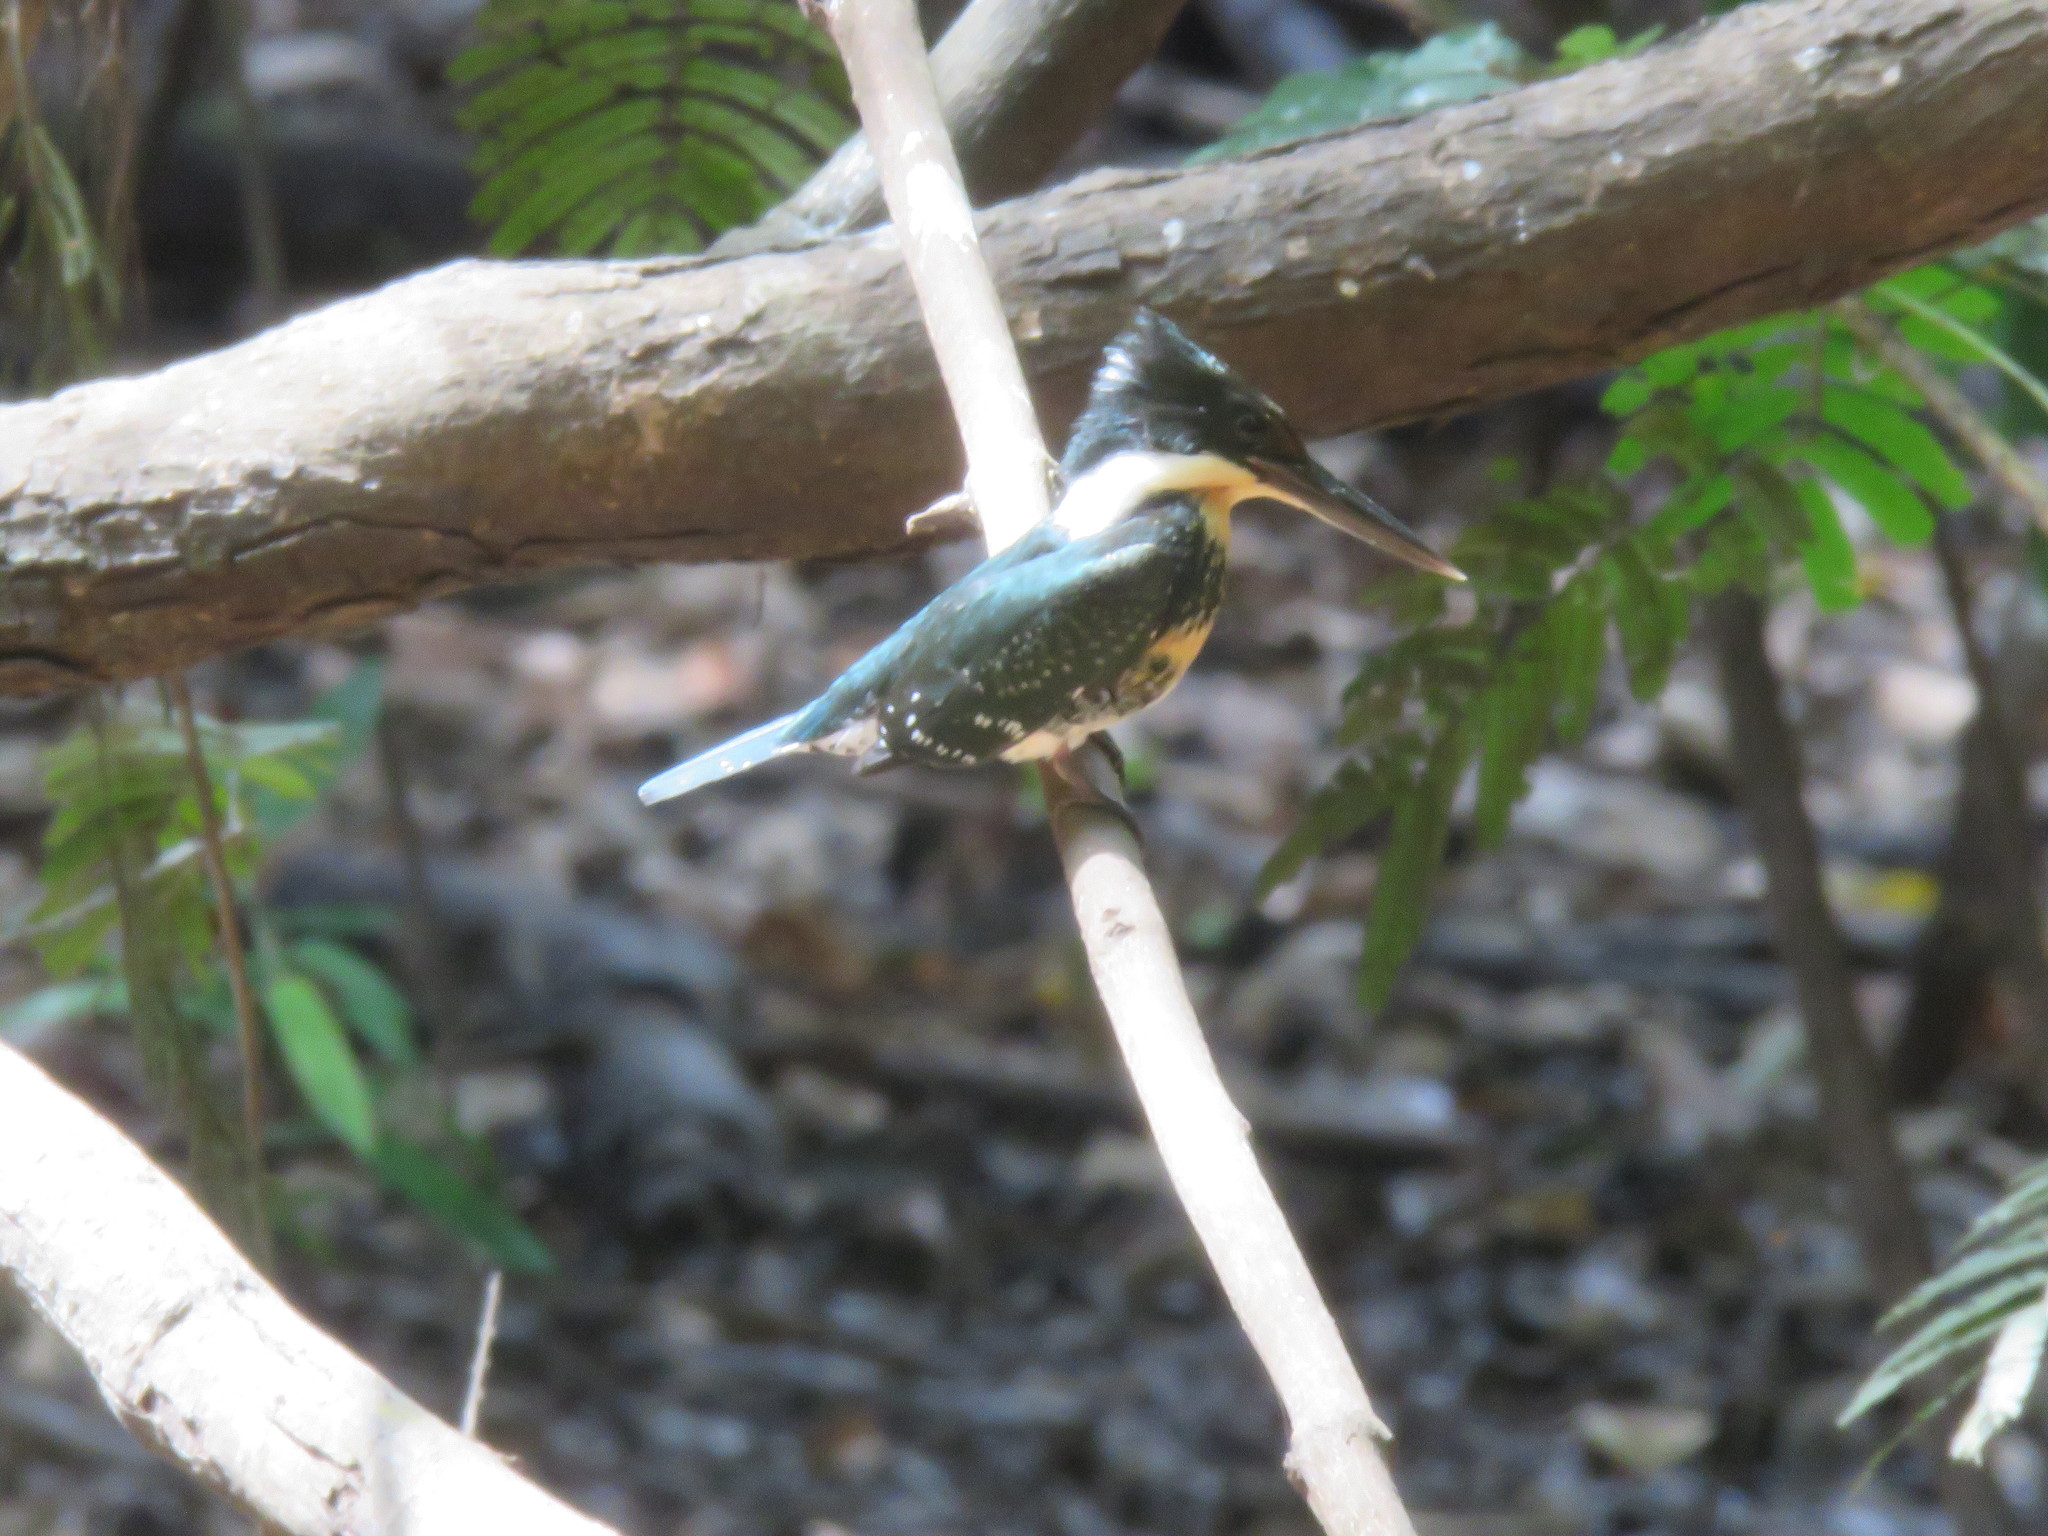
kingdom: Animalia
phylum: Chordata
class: Aves
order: Coraciiformes
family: Alcedinidae
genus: Chloroceryle
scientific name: Chloroceryle americana
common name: Green kingfisher
